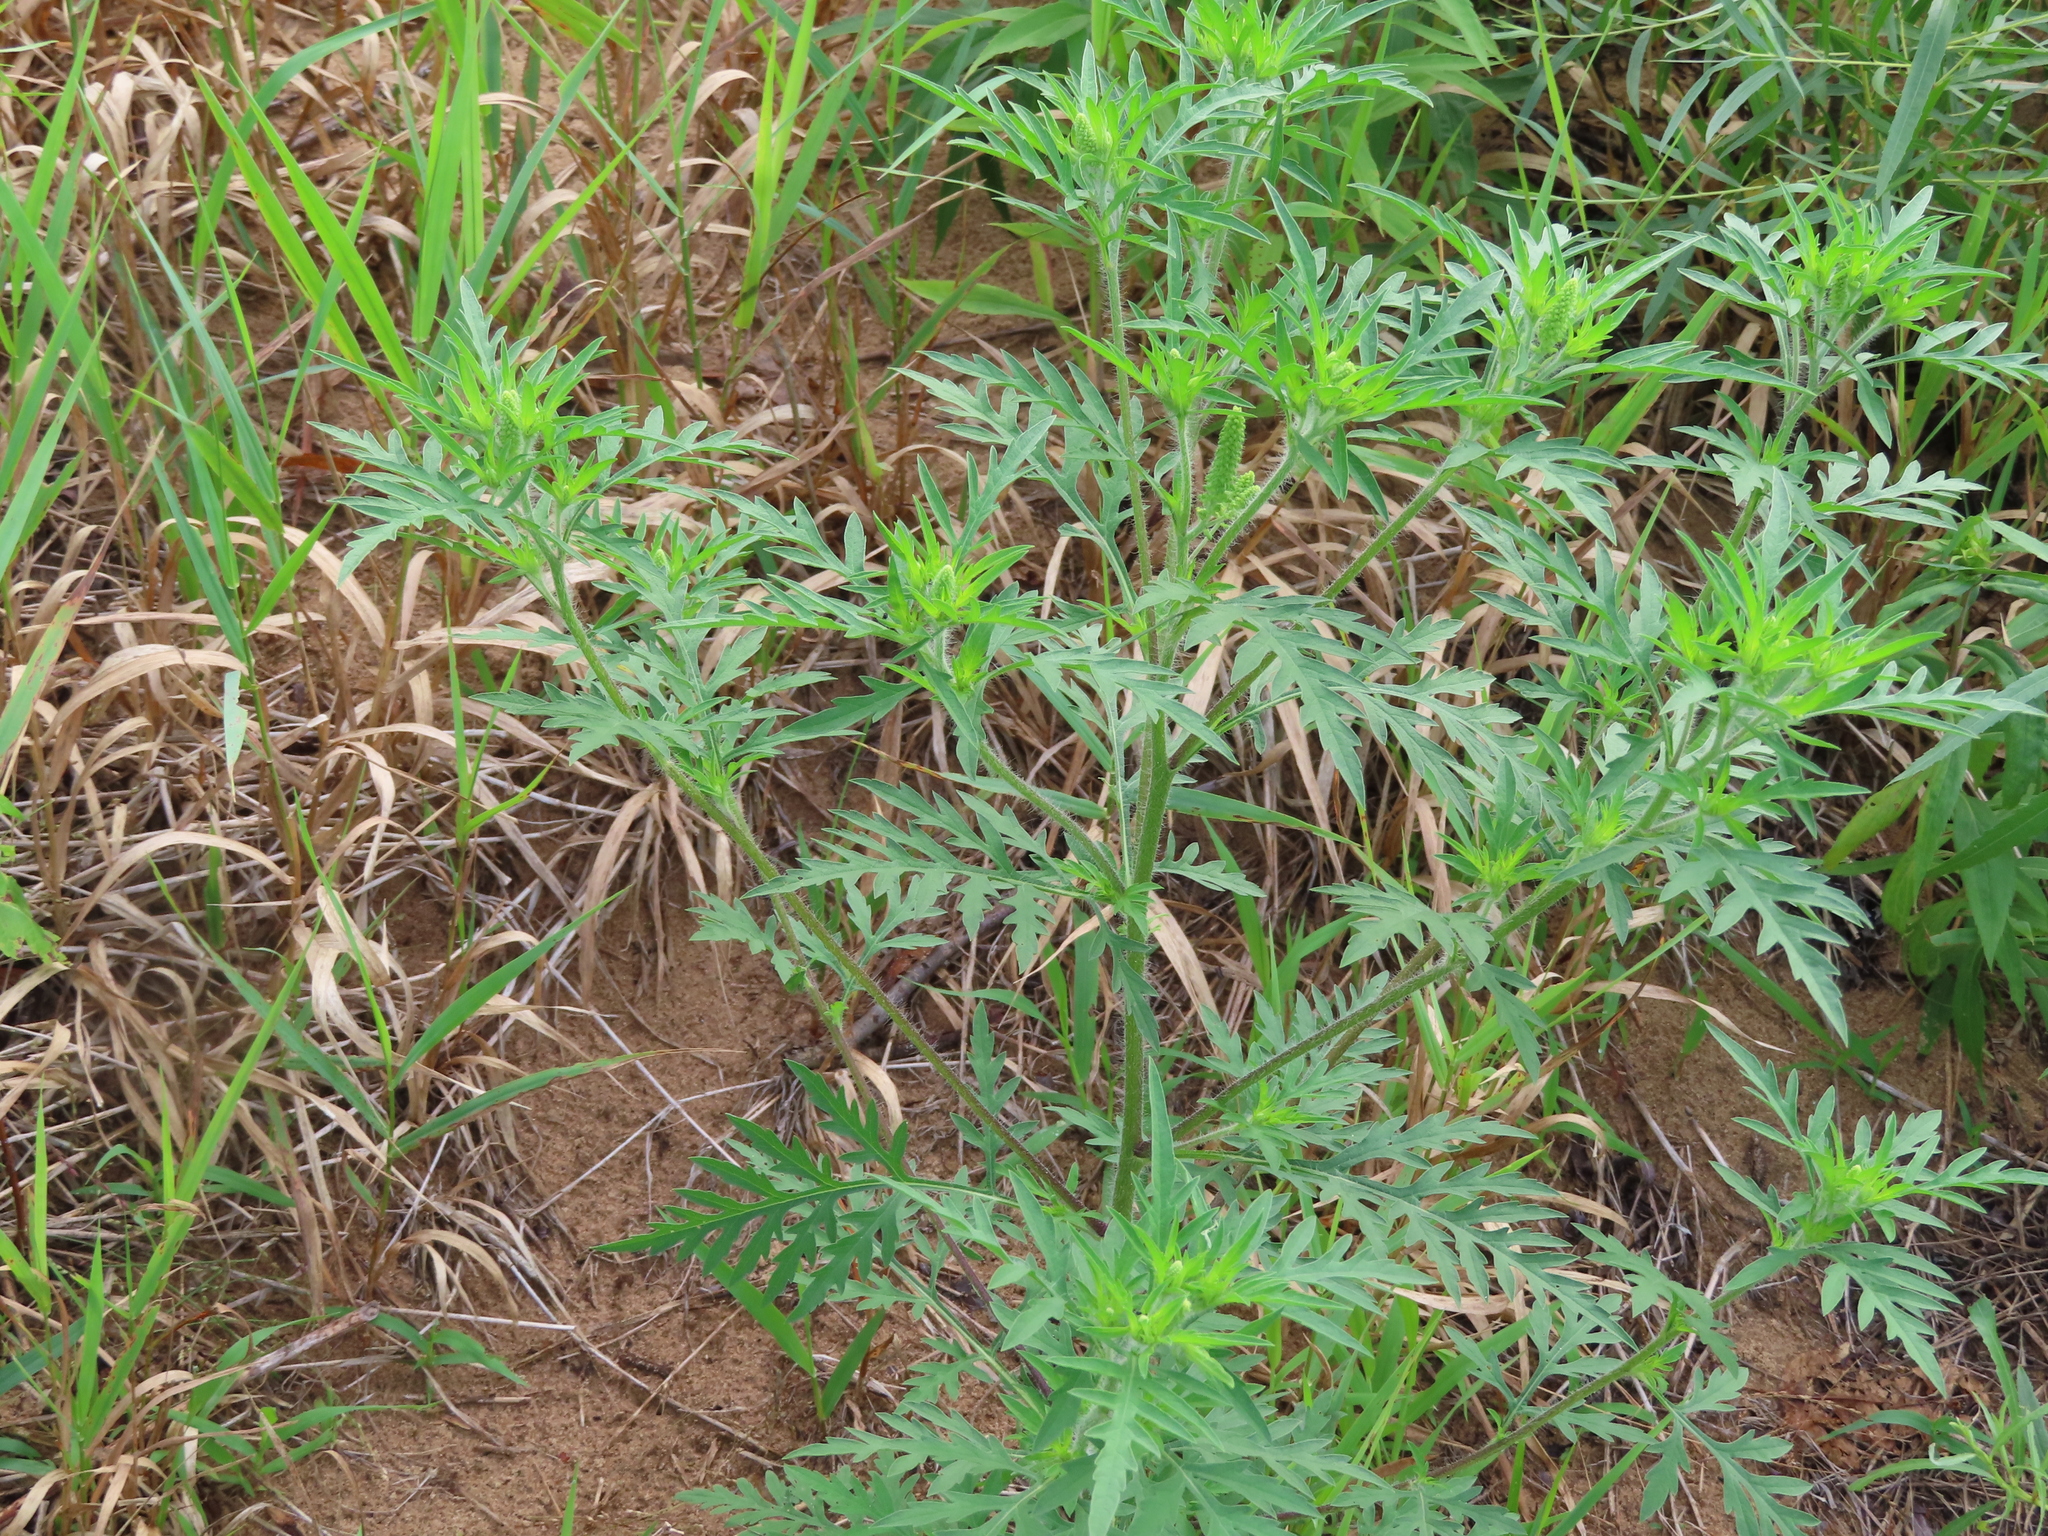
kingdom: Plantae
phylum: Tracheophyta
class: Magnoliopsida
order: Asterales
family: Asteraceae
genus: Ambrosia
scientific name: Ambrosia artemisiifolia
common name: Annual ragweed
